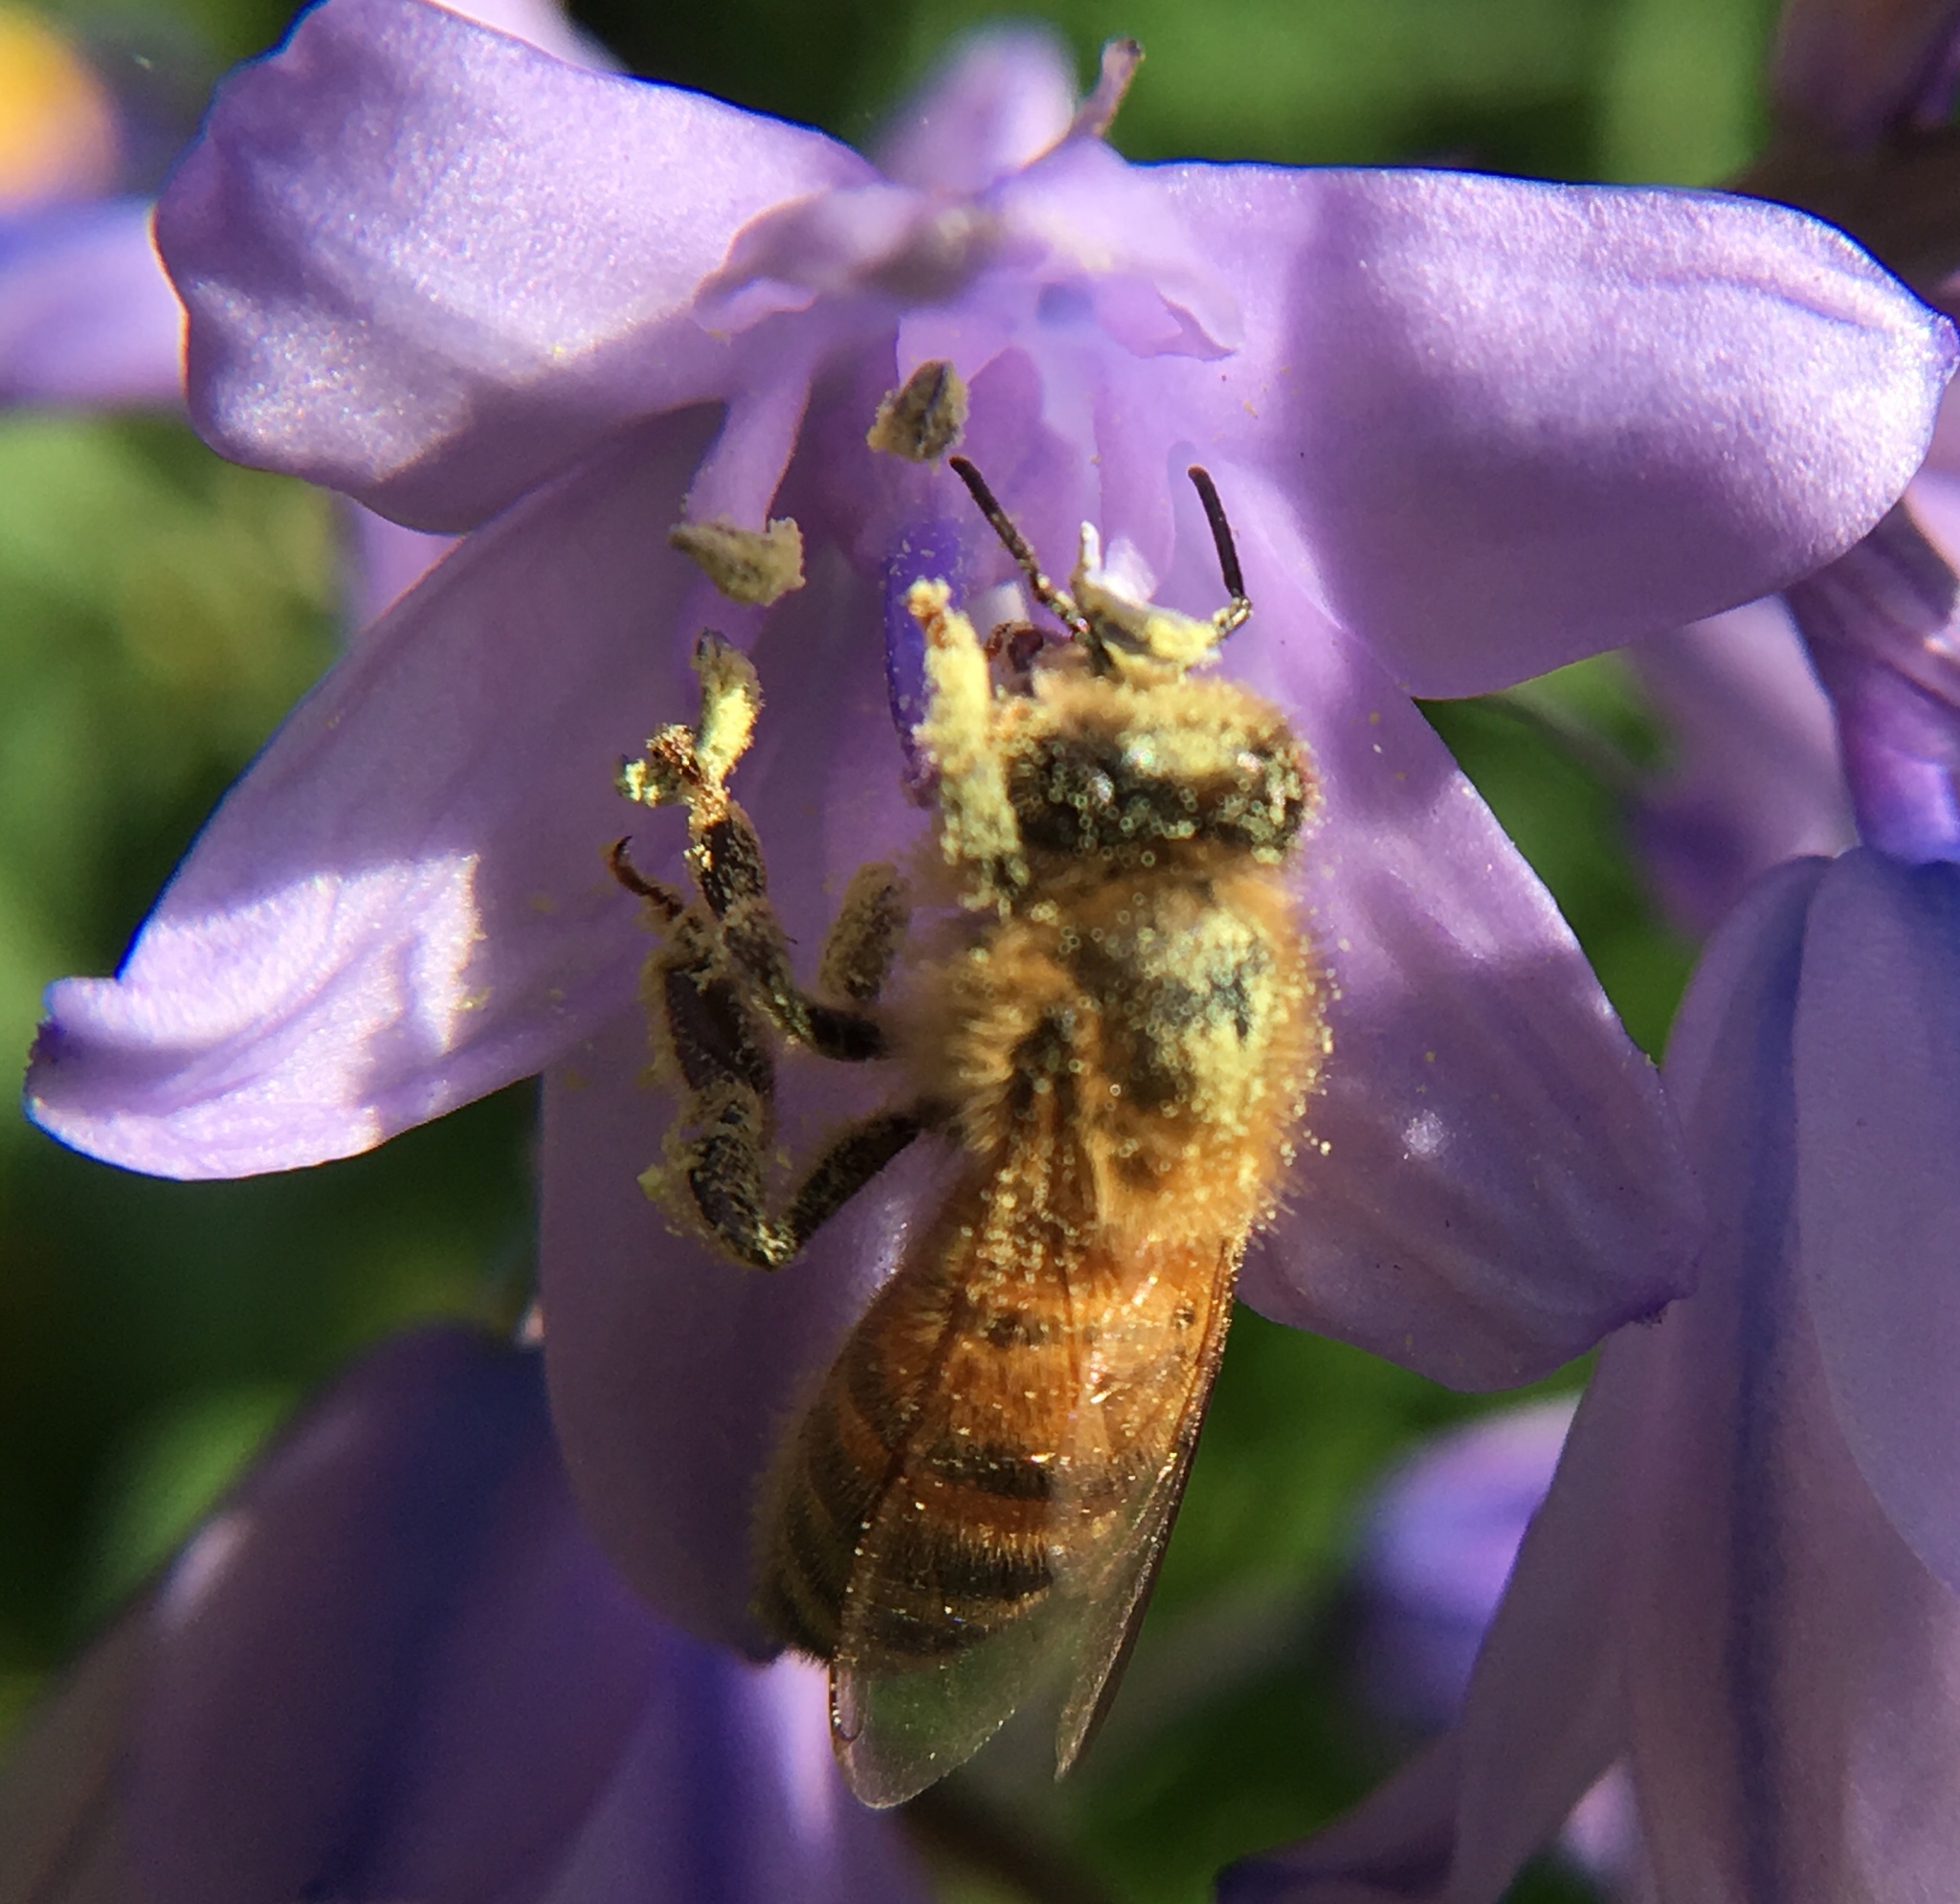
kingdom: Animalia
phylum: Arthropoda
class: Insecta
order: Hymenoptera
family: Apidae
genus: Apis
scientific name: Apis mellifera
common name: Honey bee
